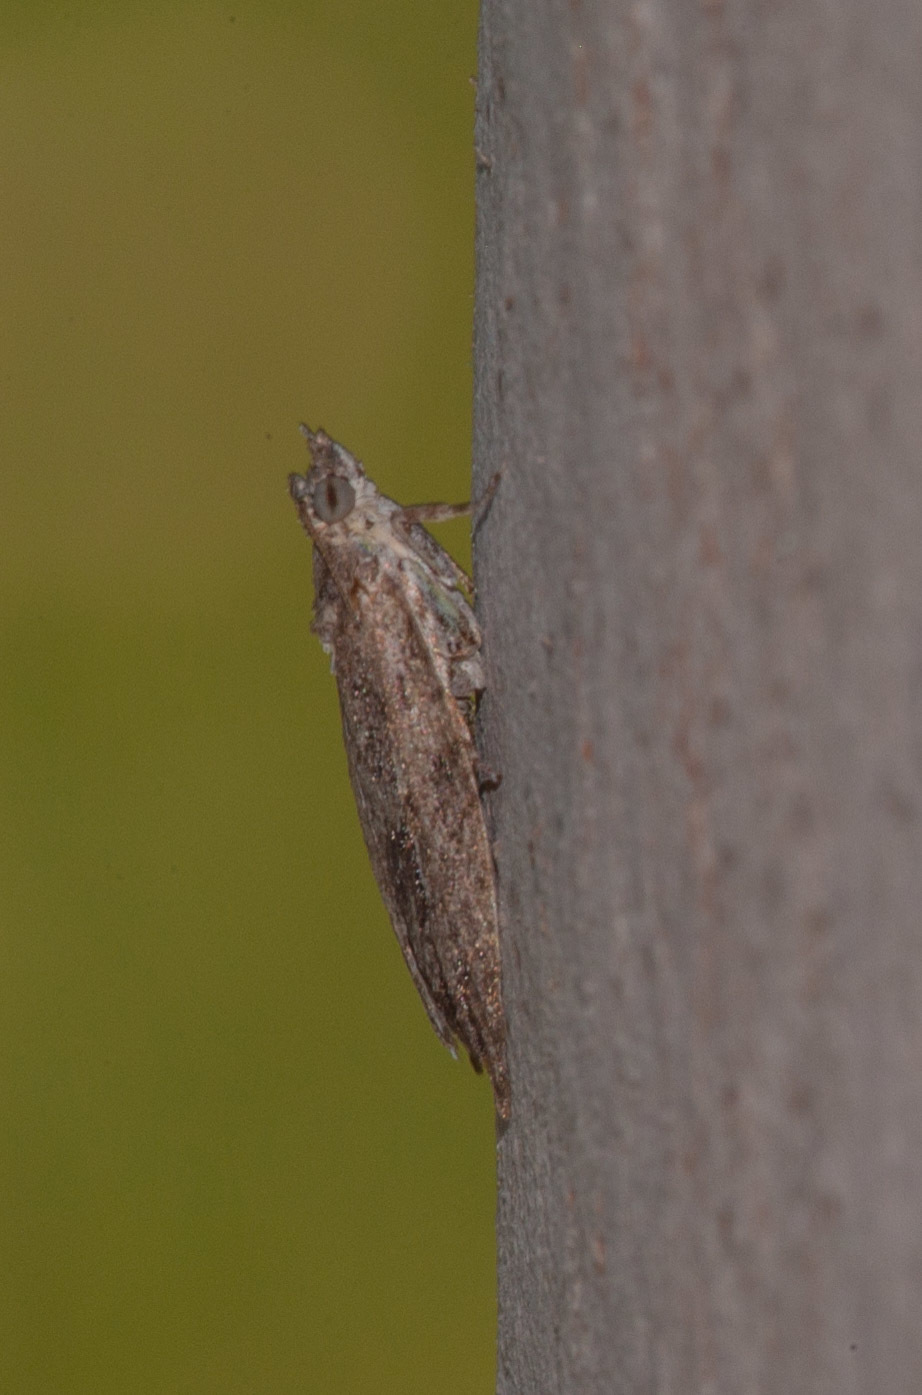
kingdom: Animalia
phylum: Arthropoda
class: Insecta
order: Lepidoptera
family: Tortricidae
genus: Acropolitis
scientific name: Acropolitis rudisana
